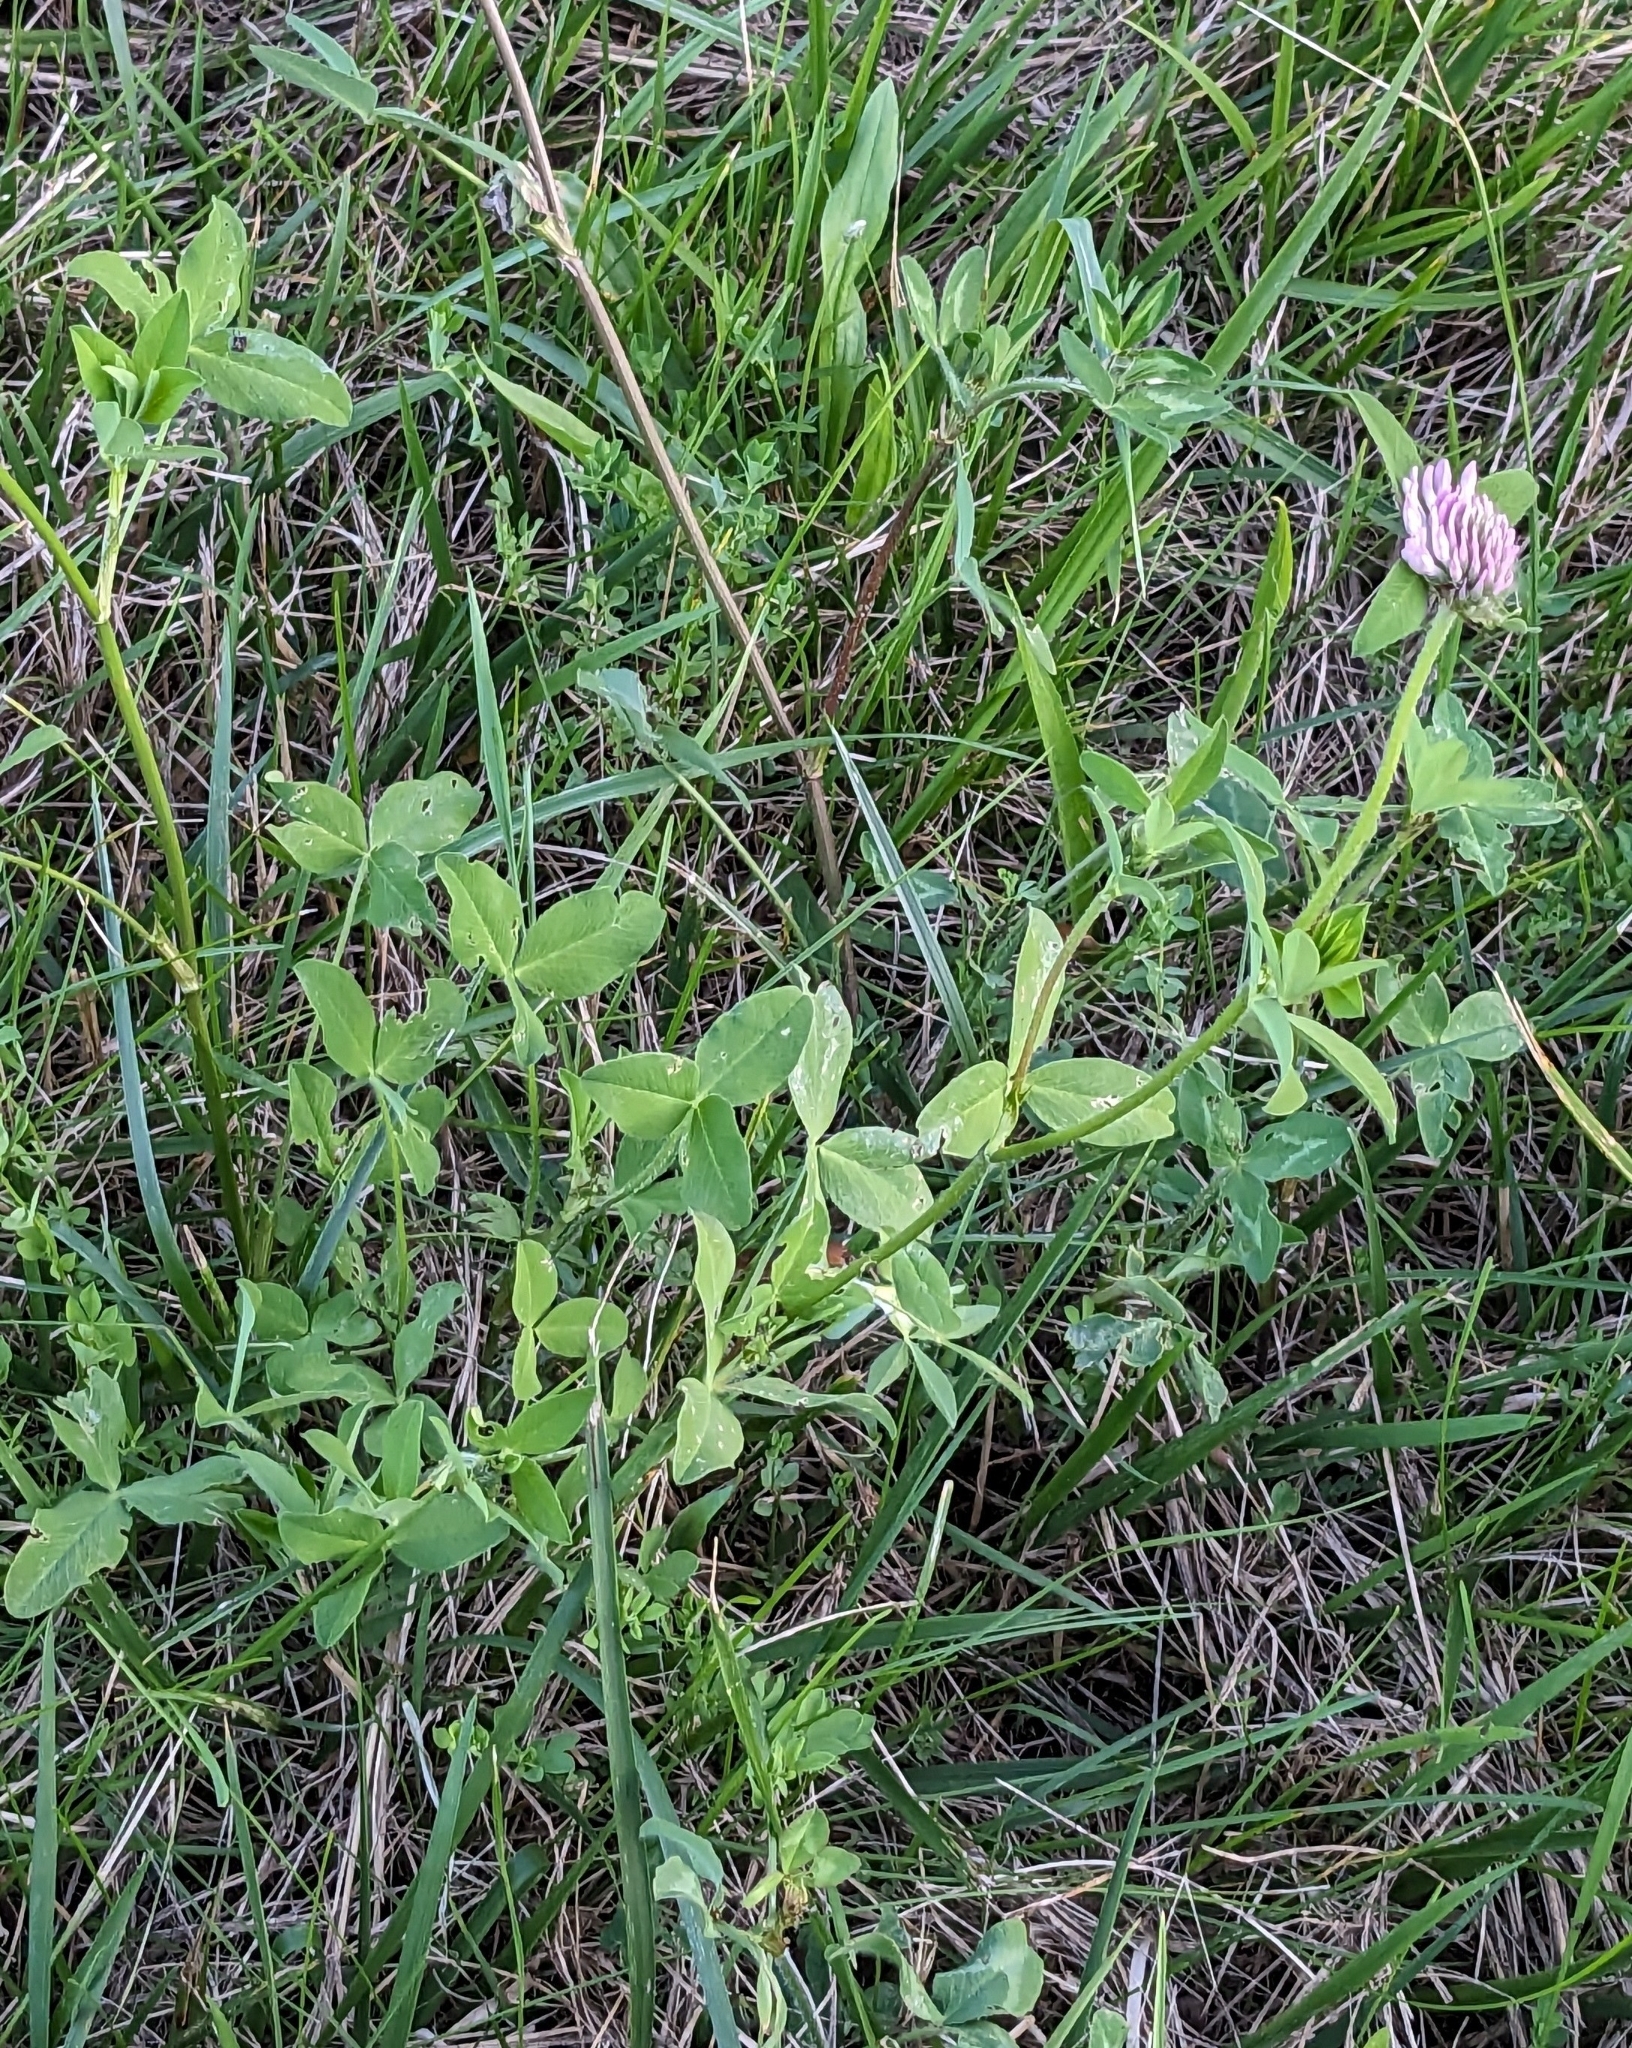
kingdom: Plantae
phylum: Tracheophyta
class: Magnoliopsida
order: Fabales
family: Fabaceae
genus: Trifolium
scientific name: Trifolium pratense
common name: Red clover
